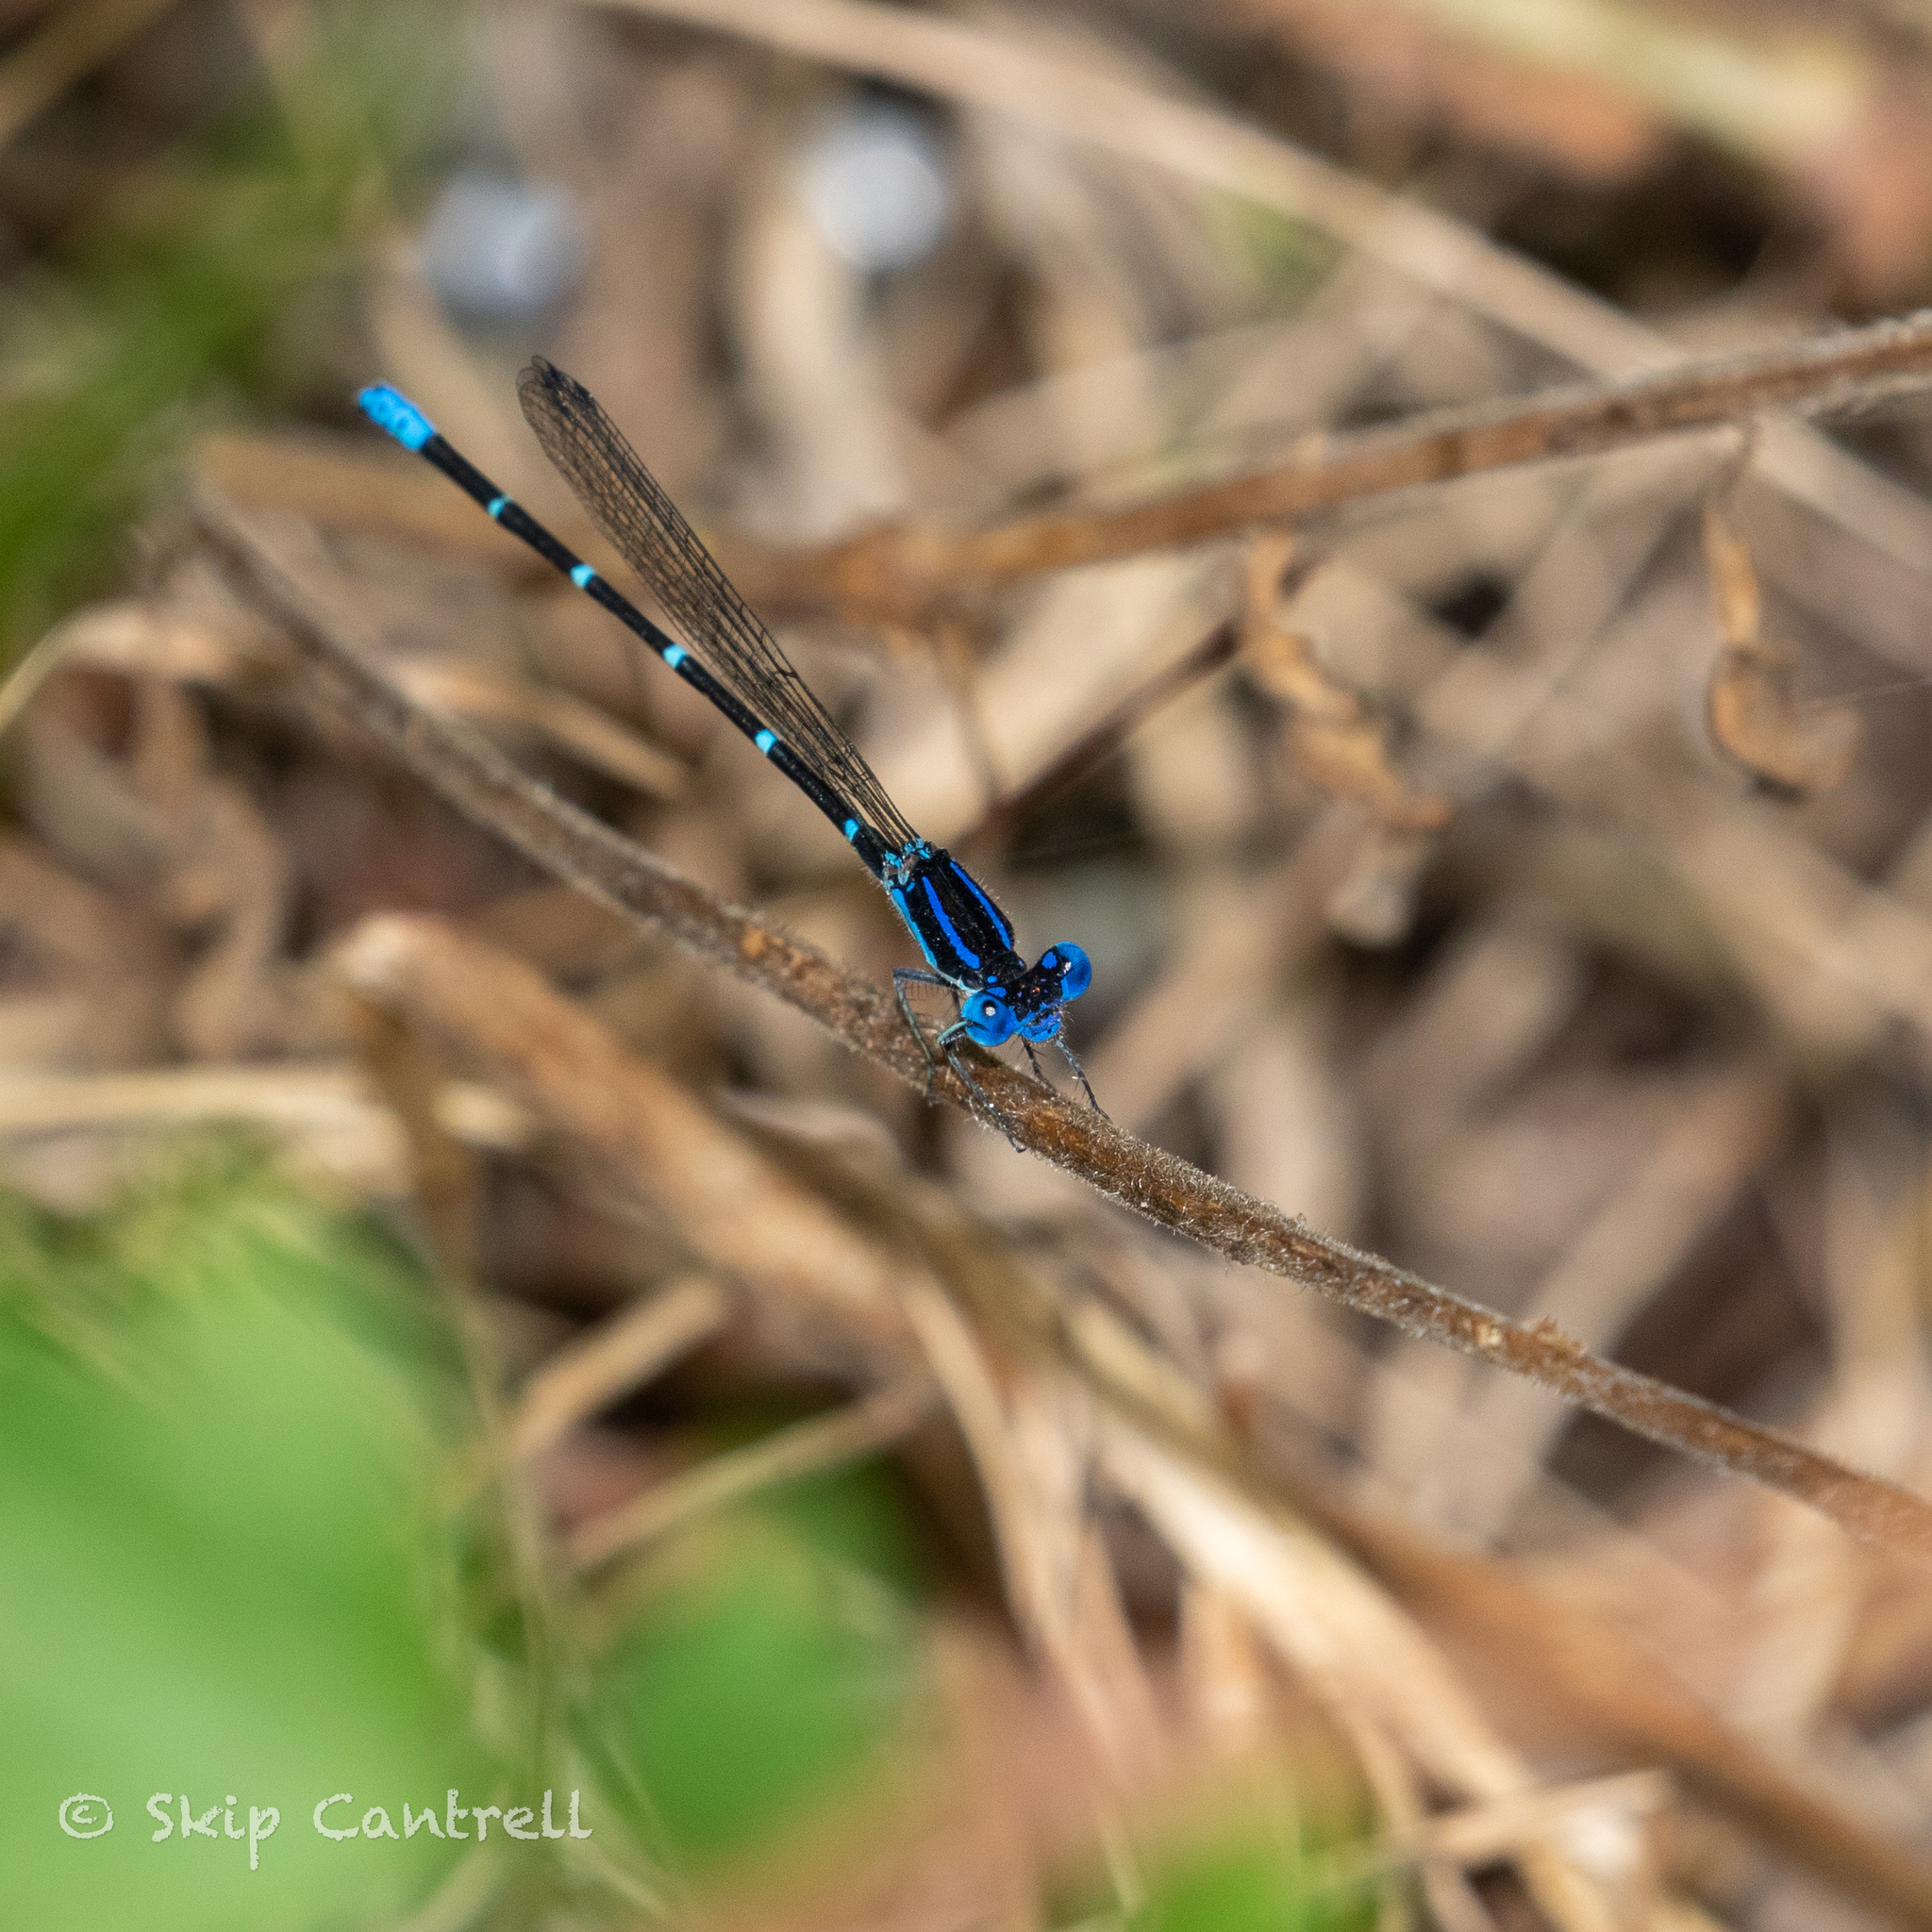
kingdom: Animalia
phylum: Arthropoda
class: Insecta
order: Odonata
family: Coenagrionidae
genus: Argia
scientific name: Argia sedula
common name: Blue-ringed dancer
